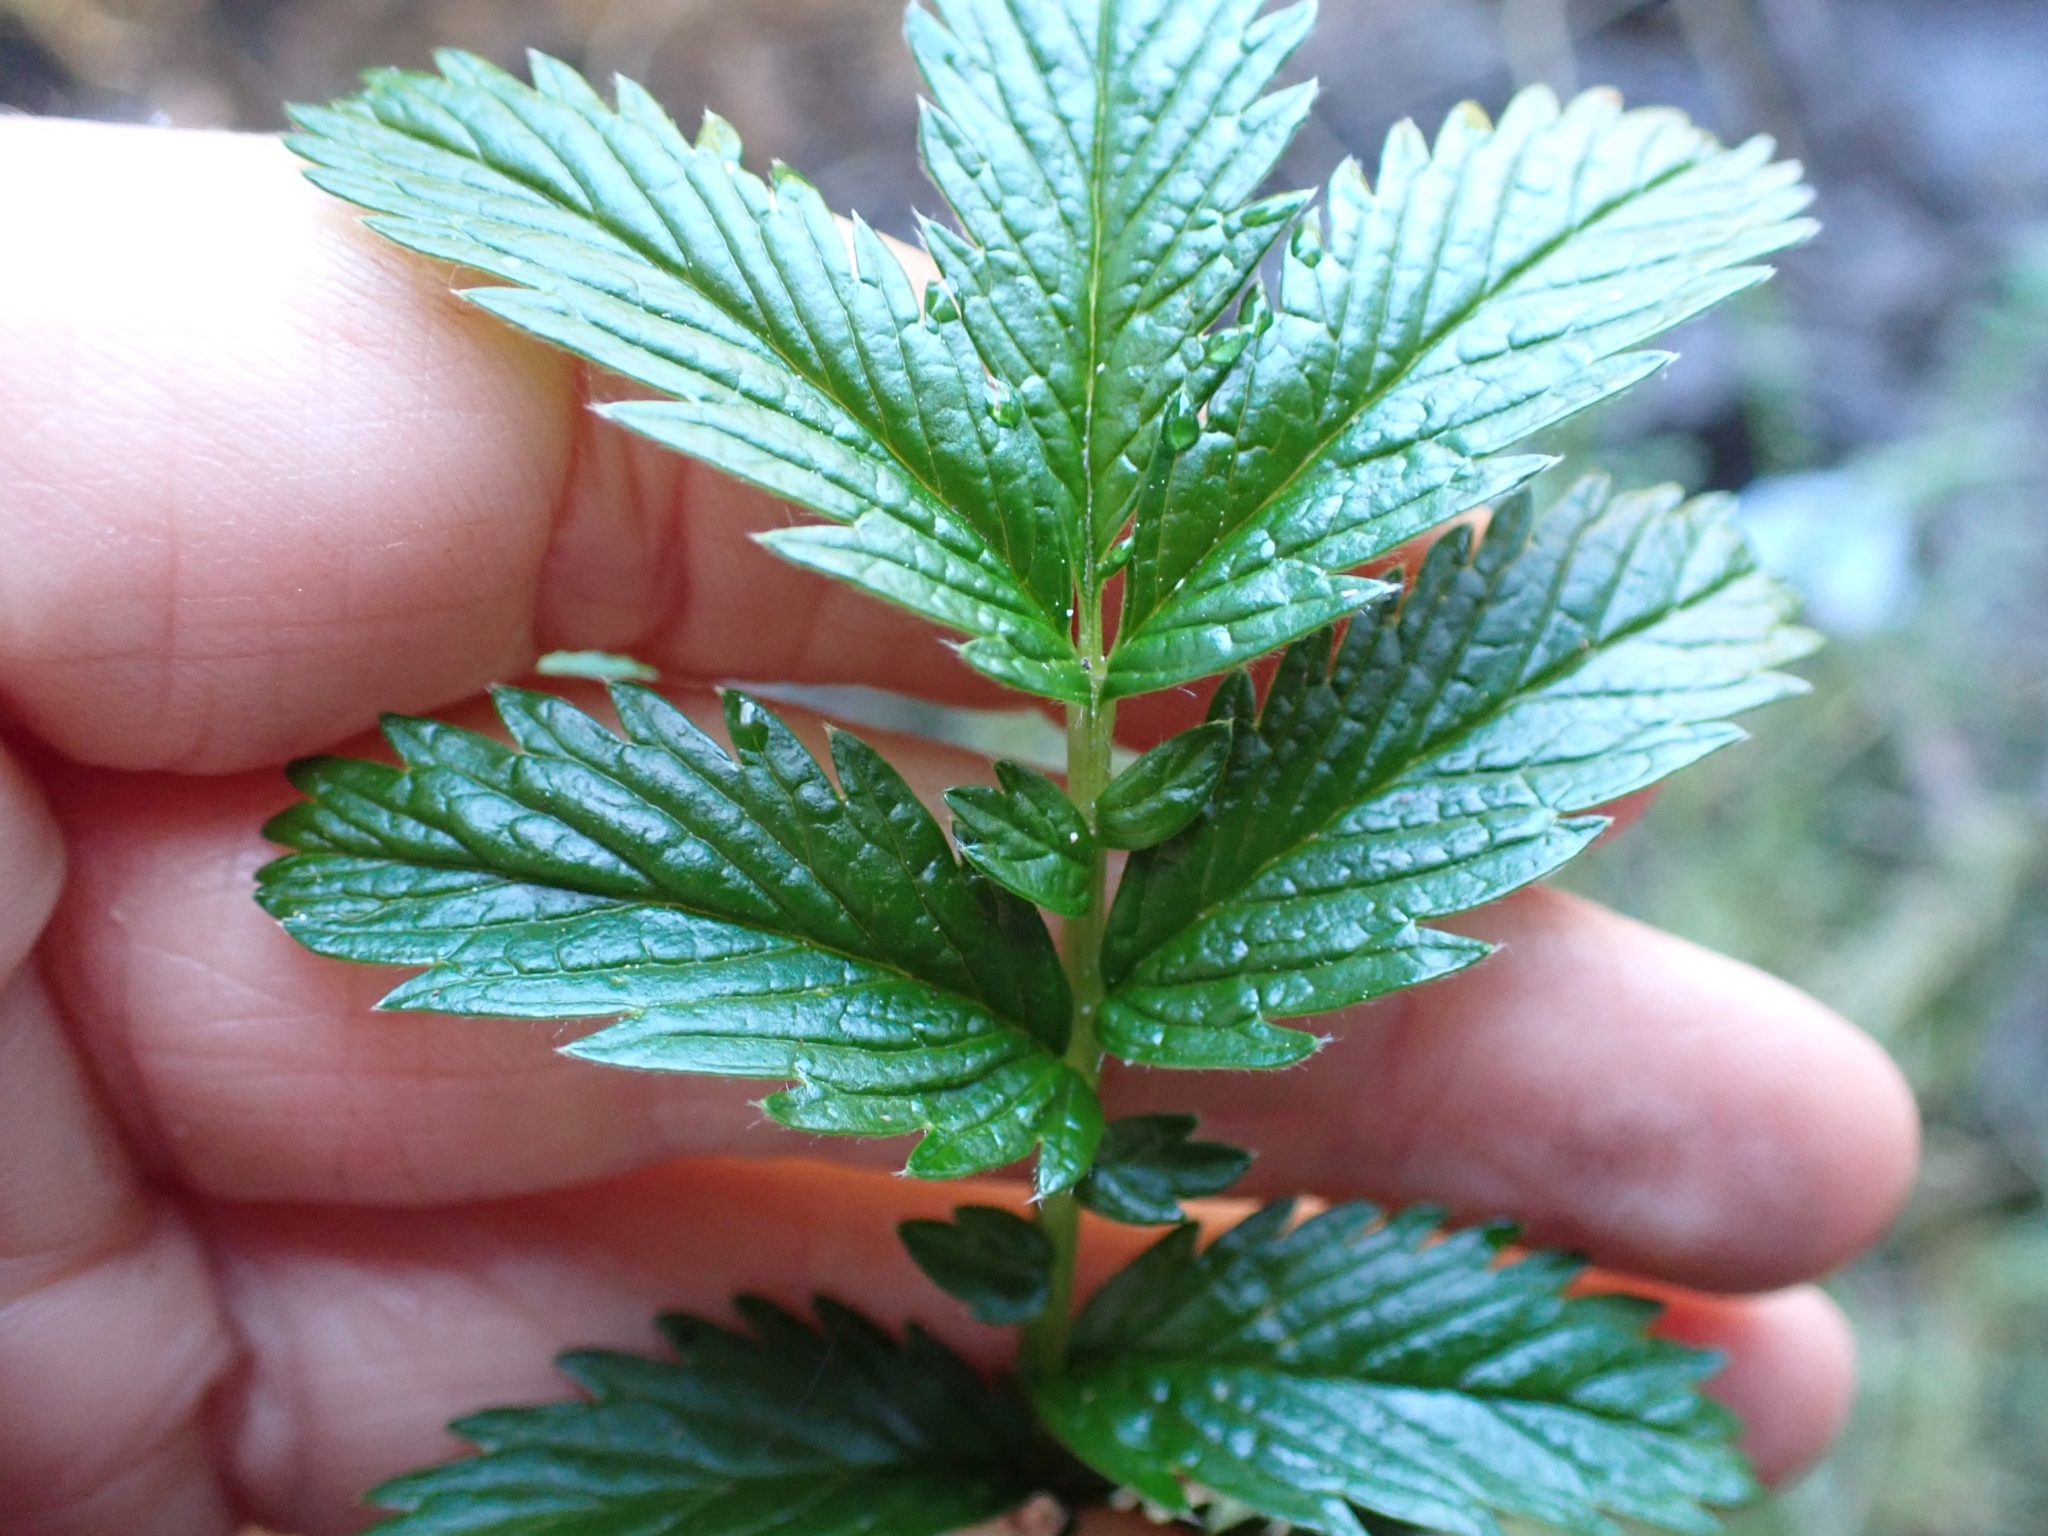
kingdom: Plantae
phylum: Tracheophyta
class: Magnoliopsida
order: Rosales
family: Rosaceae
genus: Argentina
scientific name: Argentina anserina
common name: Common silverweed
